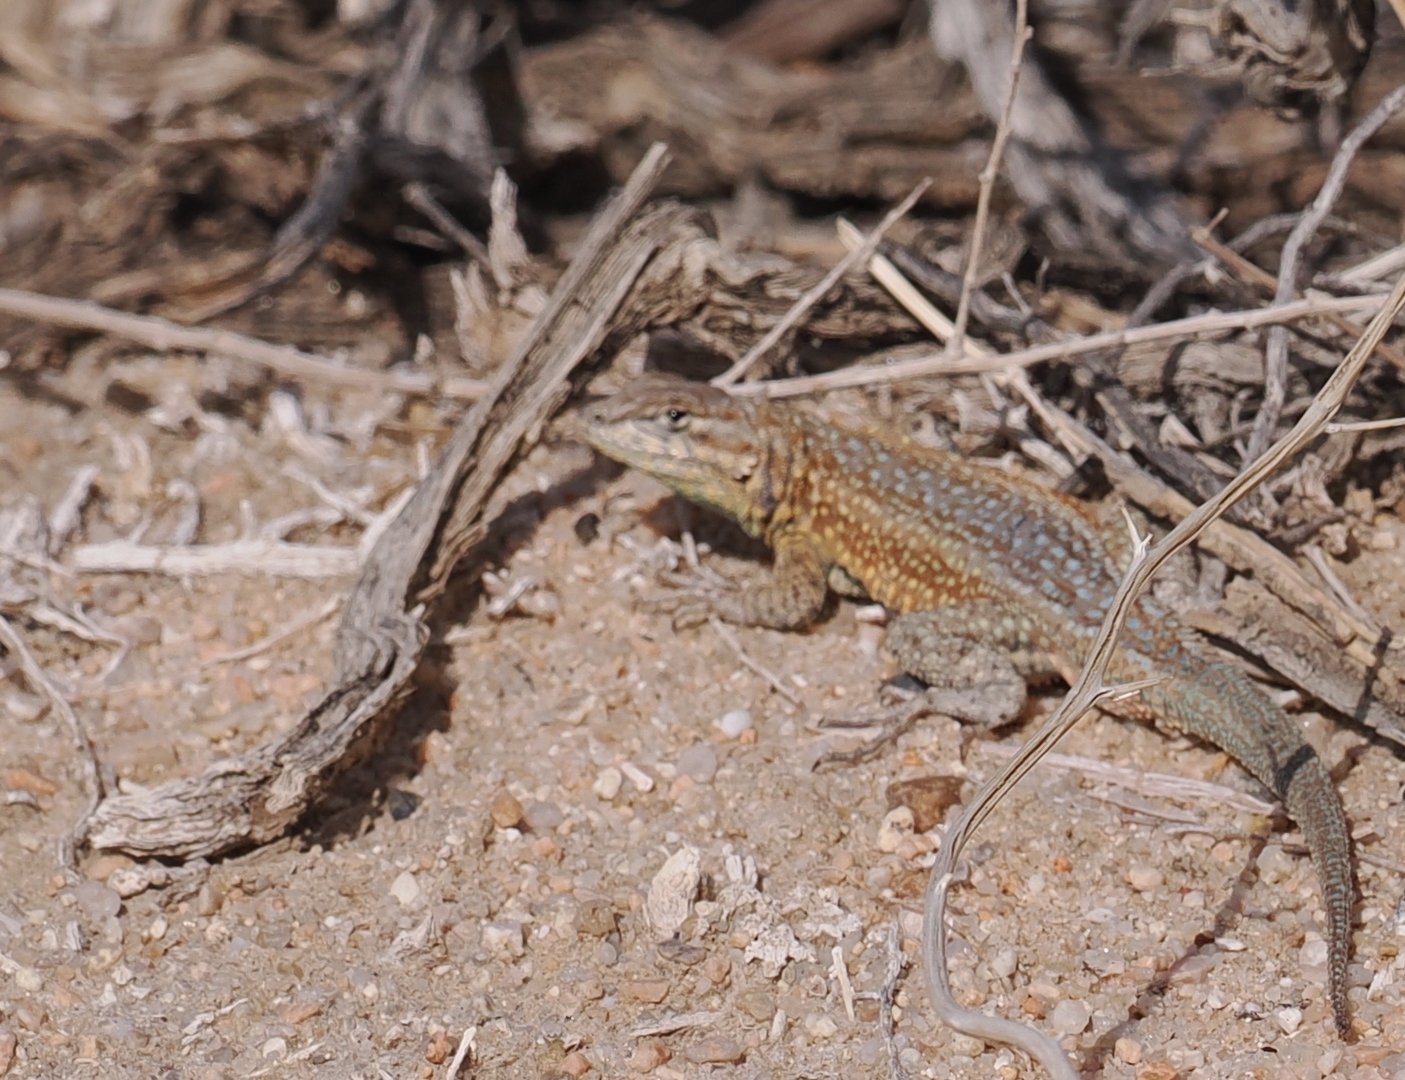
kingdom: Animalia
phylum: Chordata
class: Squamata
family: Phrynosomatidae
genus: Uta
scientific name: Uta stansburiana
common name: Side-blotched lizard
